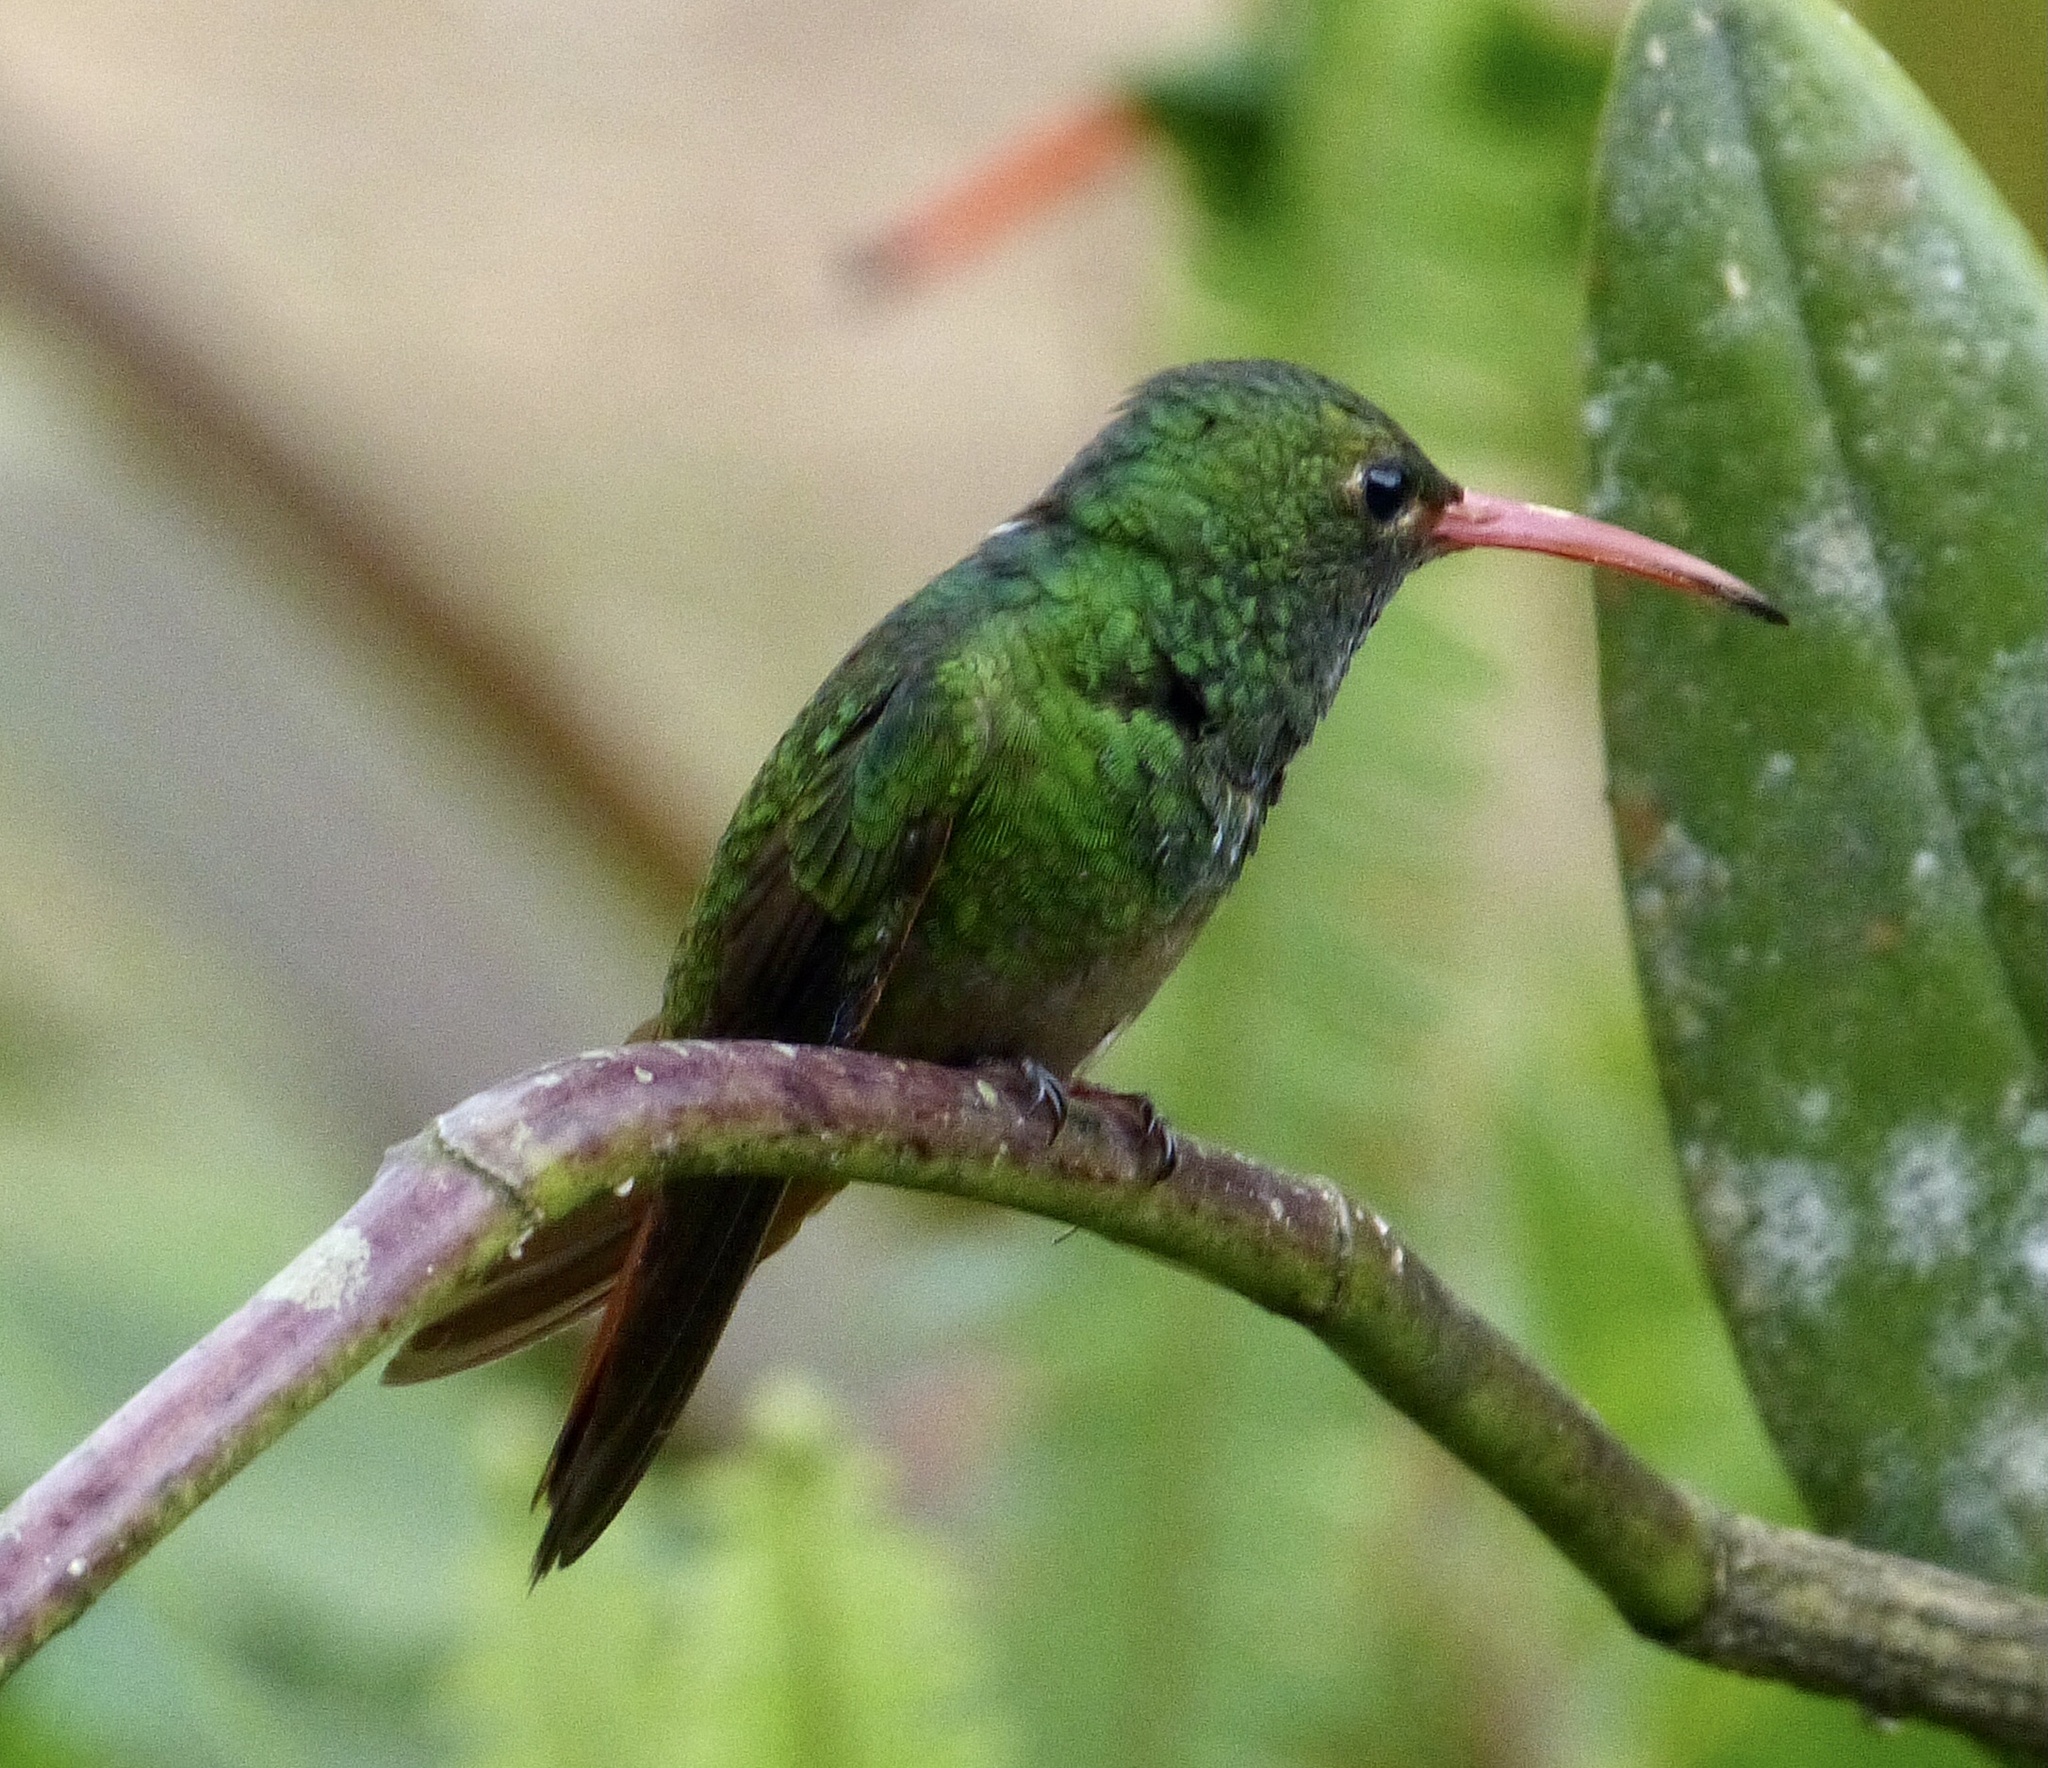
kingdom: Animalia
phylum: Chordata
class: Aves
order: Apodiformes
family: Trochilidae
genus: Amazilia
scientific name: Amazilia tzacatl
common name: Rufous-tailed hummingbird
